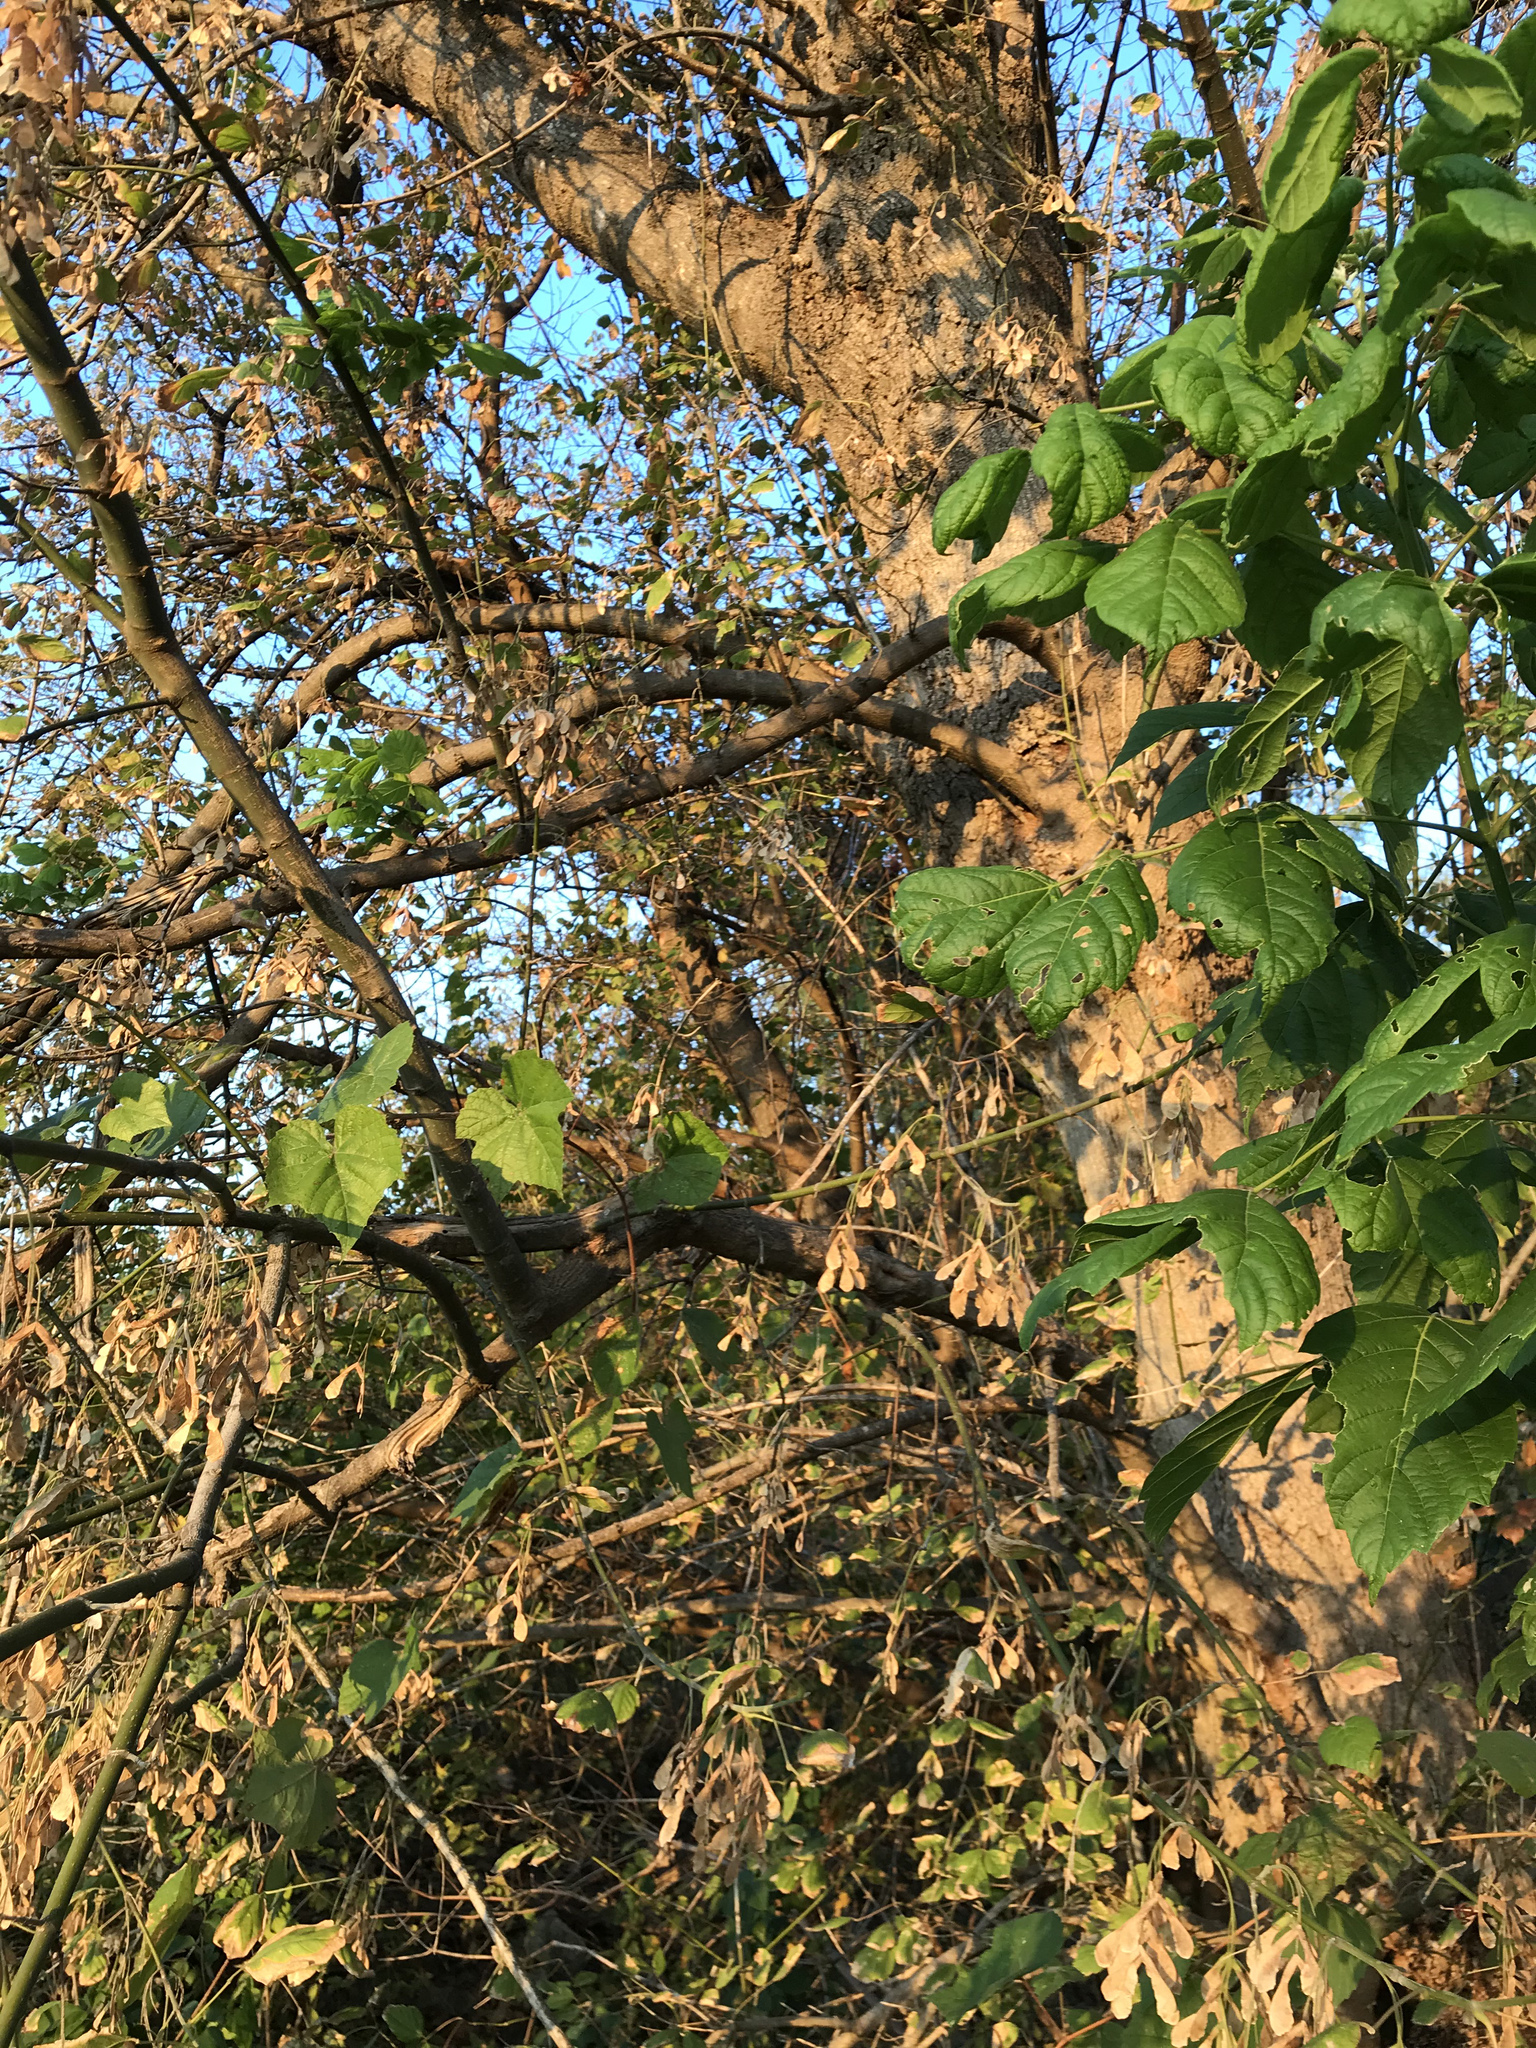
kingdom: Plantae
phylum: Tracheophyta
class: Magnoliopsida
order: Sapindales
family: Sapindaceae
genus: Acer
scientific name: Acer negundo
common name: Ashleaf maple
